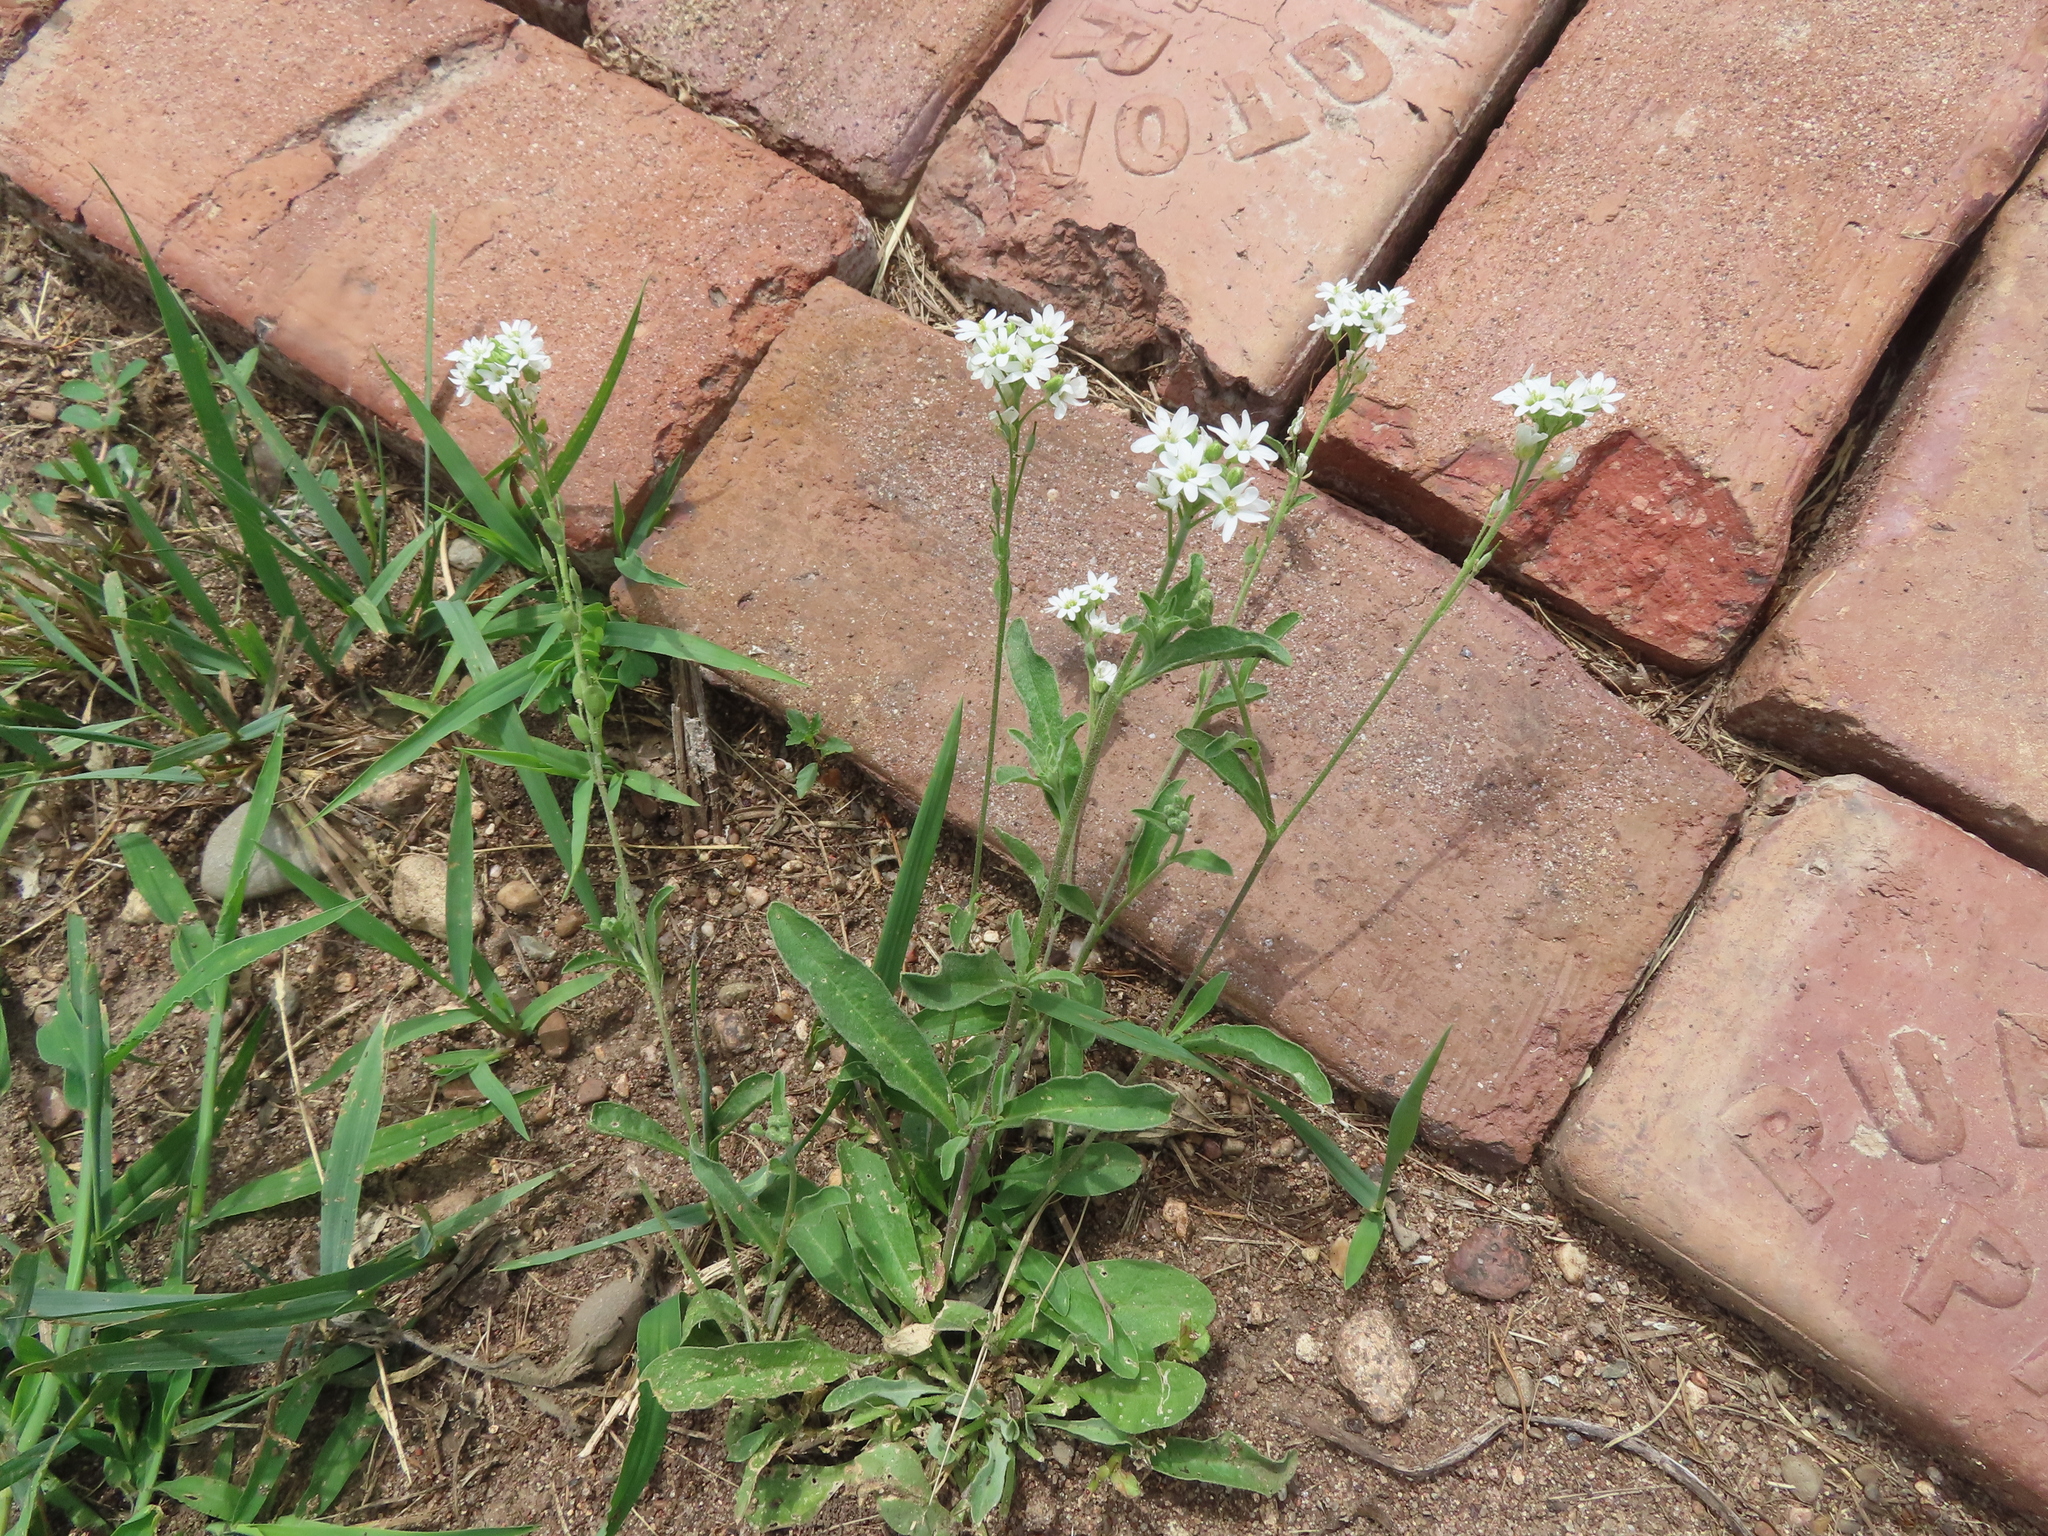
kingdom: Plantae
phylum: Tracheophyta
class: Magnoliopsida
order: Brassicales
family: Brassicaceae
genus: Berteroa
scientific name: Berteroa incana
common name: Hoary alison
